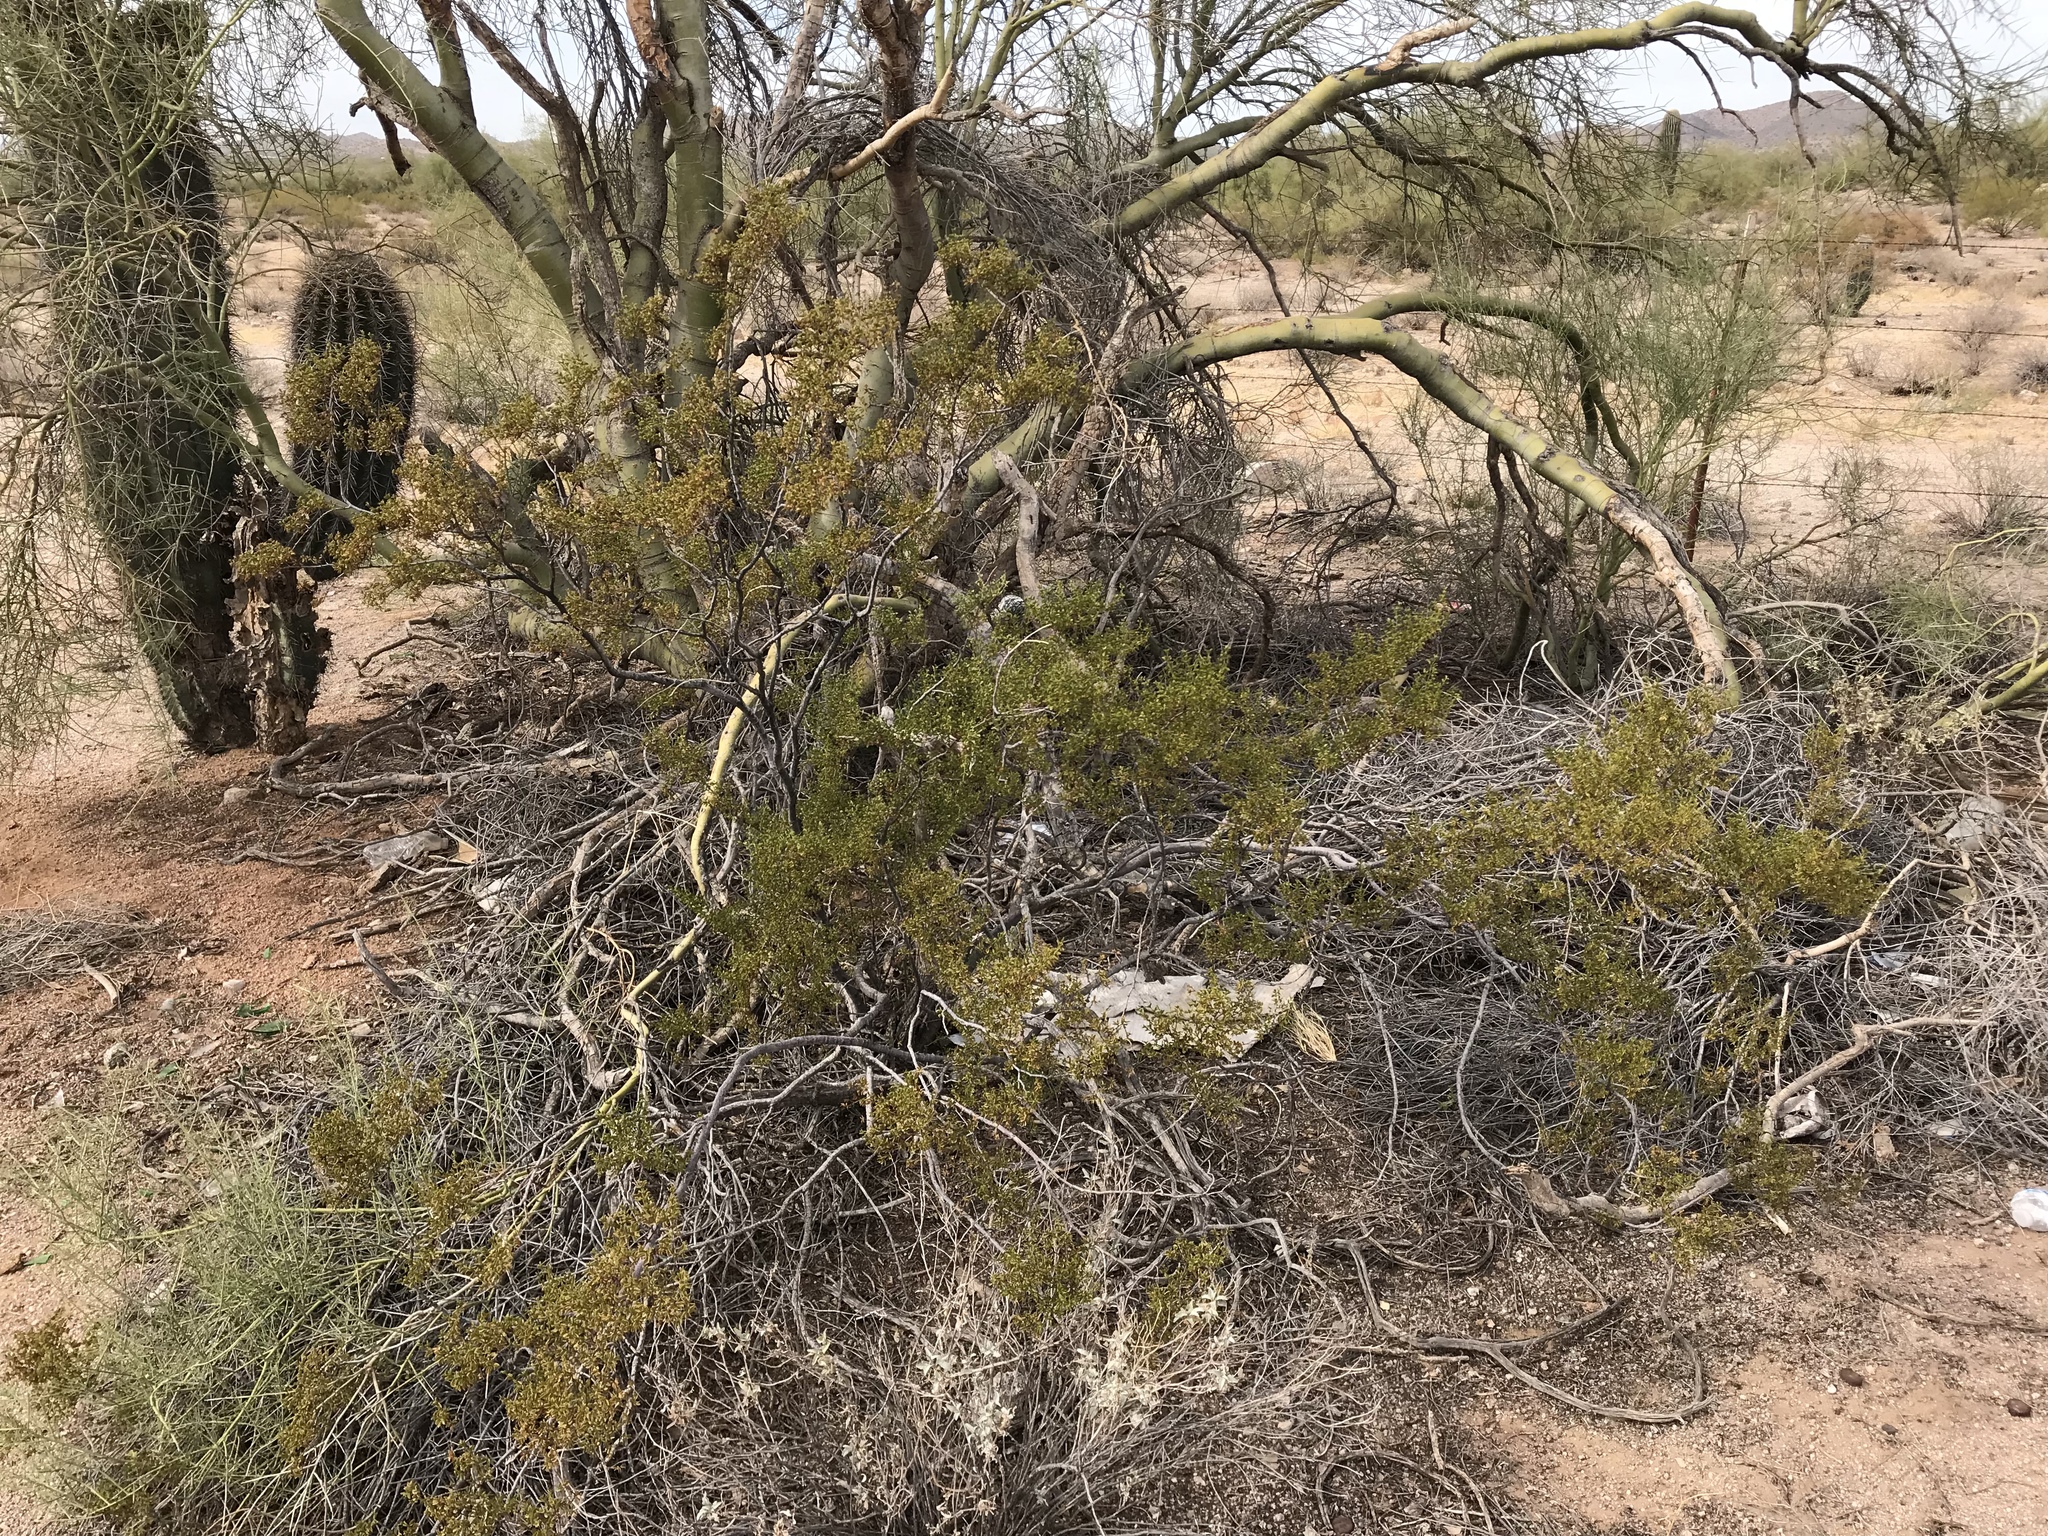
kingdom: Plantae
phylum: Tracheophyta
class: Magnoliopsida
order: Zygophyllales
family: Zygophyllaceae
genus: Larrea
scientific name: Larrea tridentata
